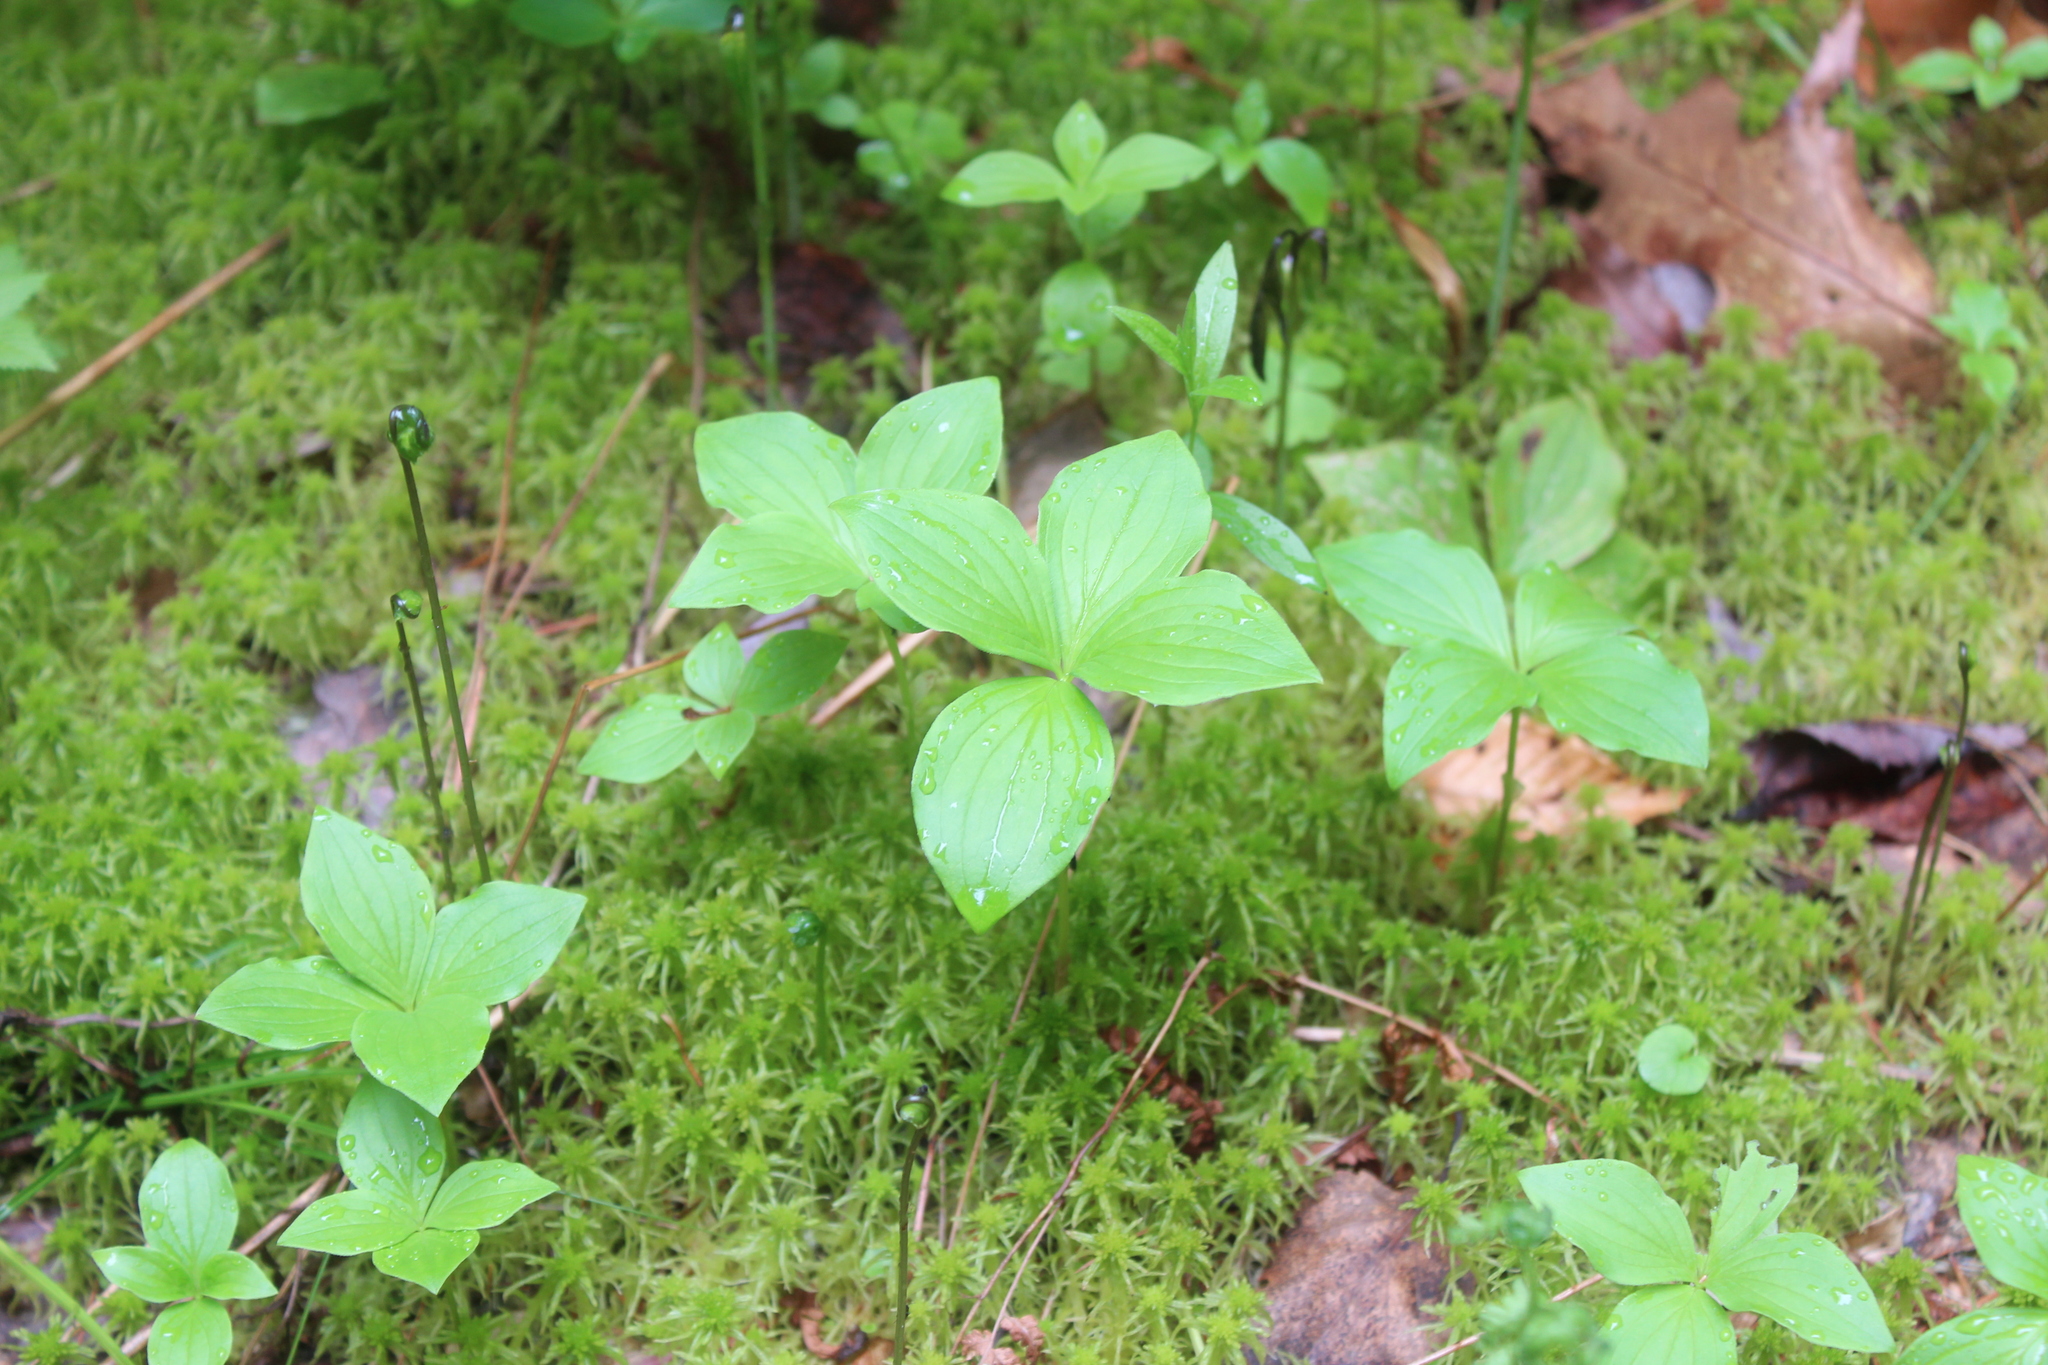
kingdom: Plantae
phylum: Tracheophyta
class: Magnoliopsida
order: Cornales
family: Cornaceae
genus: Cornus
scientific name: Cornus canadensis
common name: Creeping dogwood
